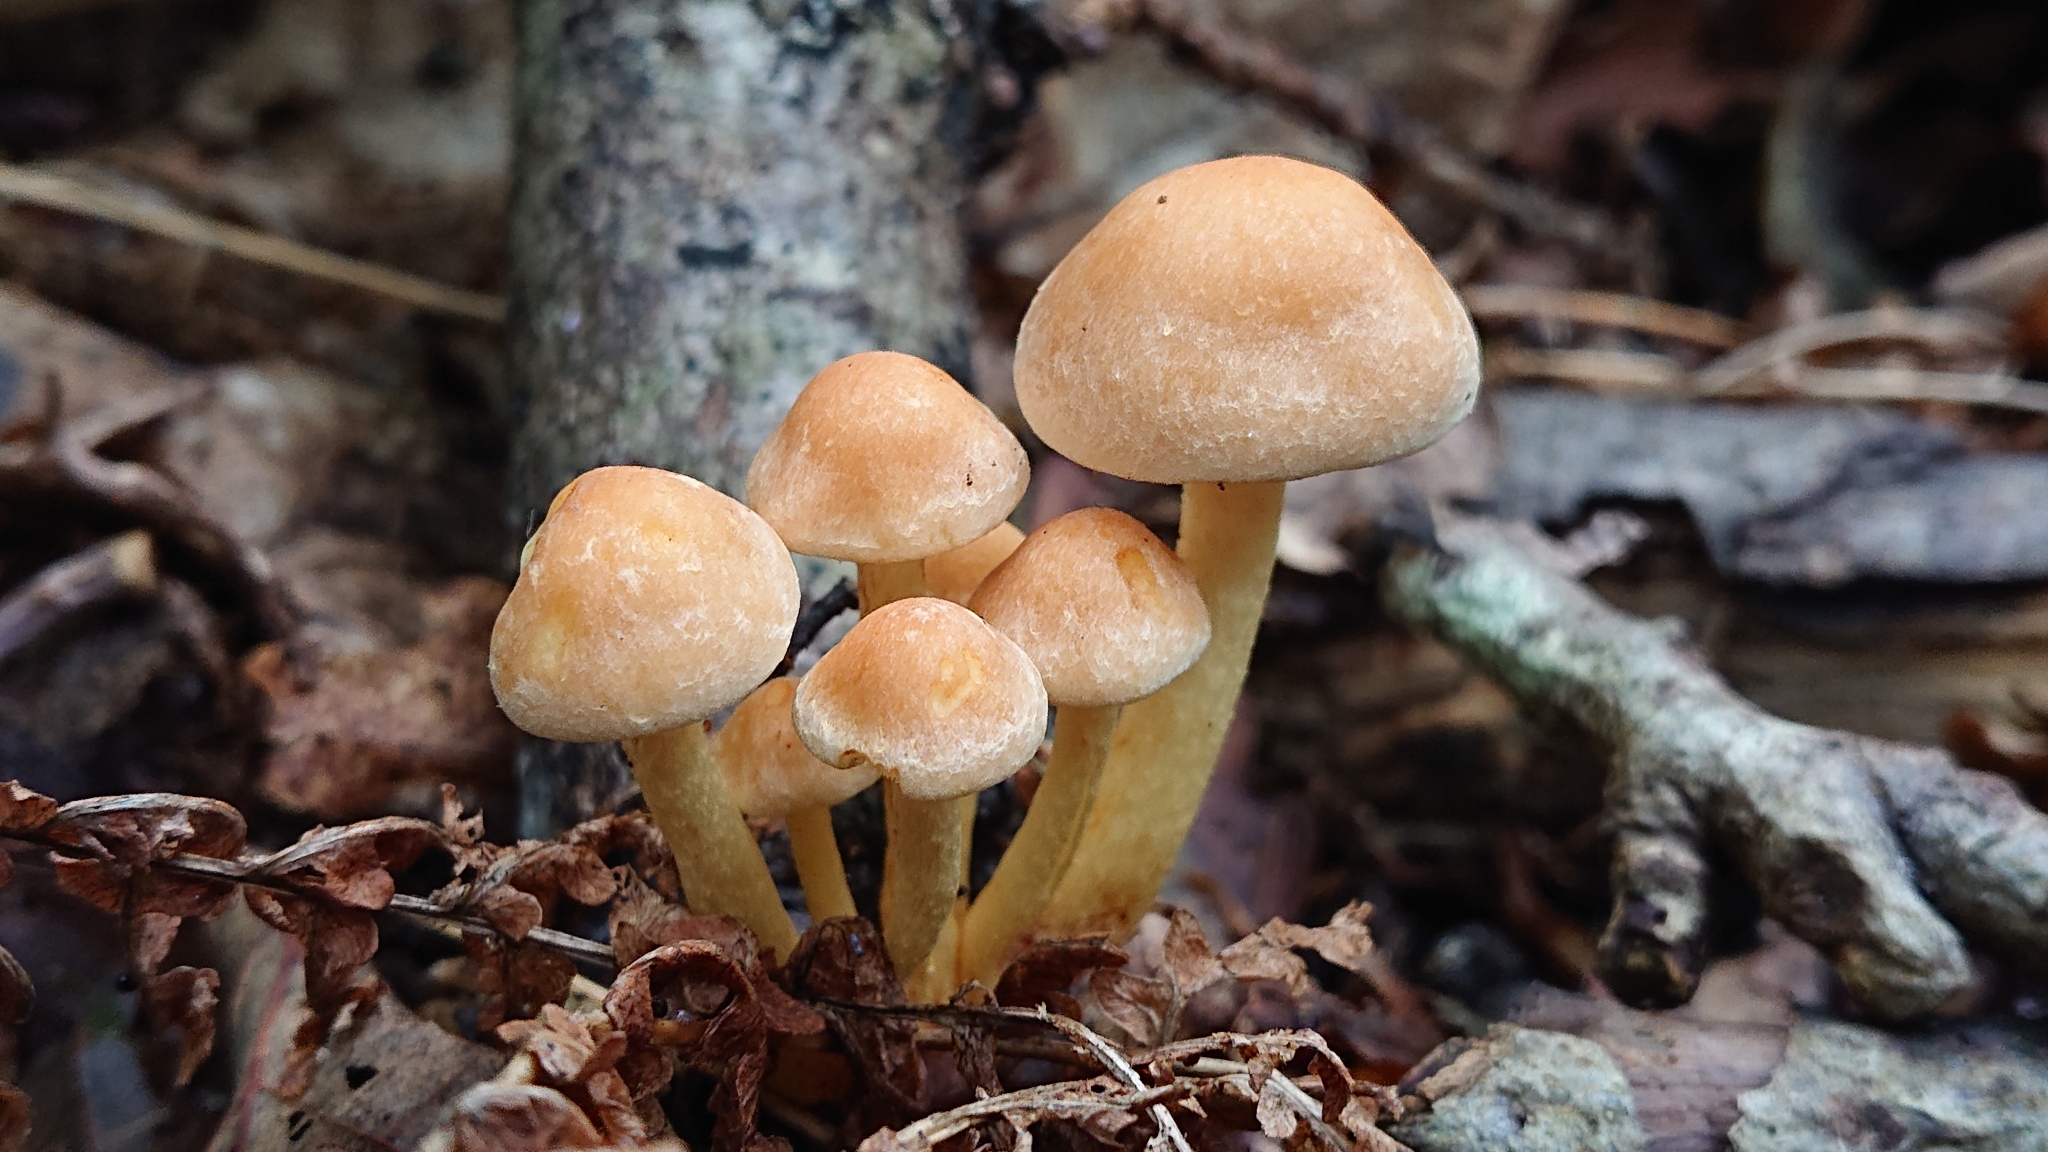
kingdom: Fungi
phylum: Basidiomycota
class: Agaricomycetes
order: Agaricales
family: Strophariaceae
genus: Hypholoma
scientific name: Hypholoma fasciculare
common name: Sulphur tuft
